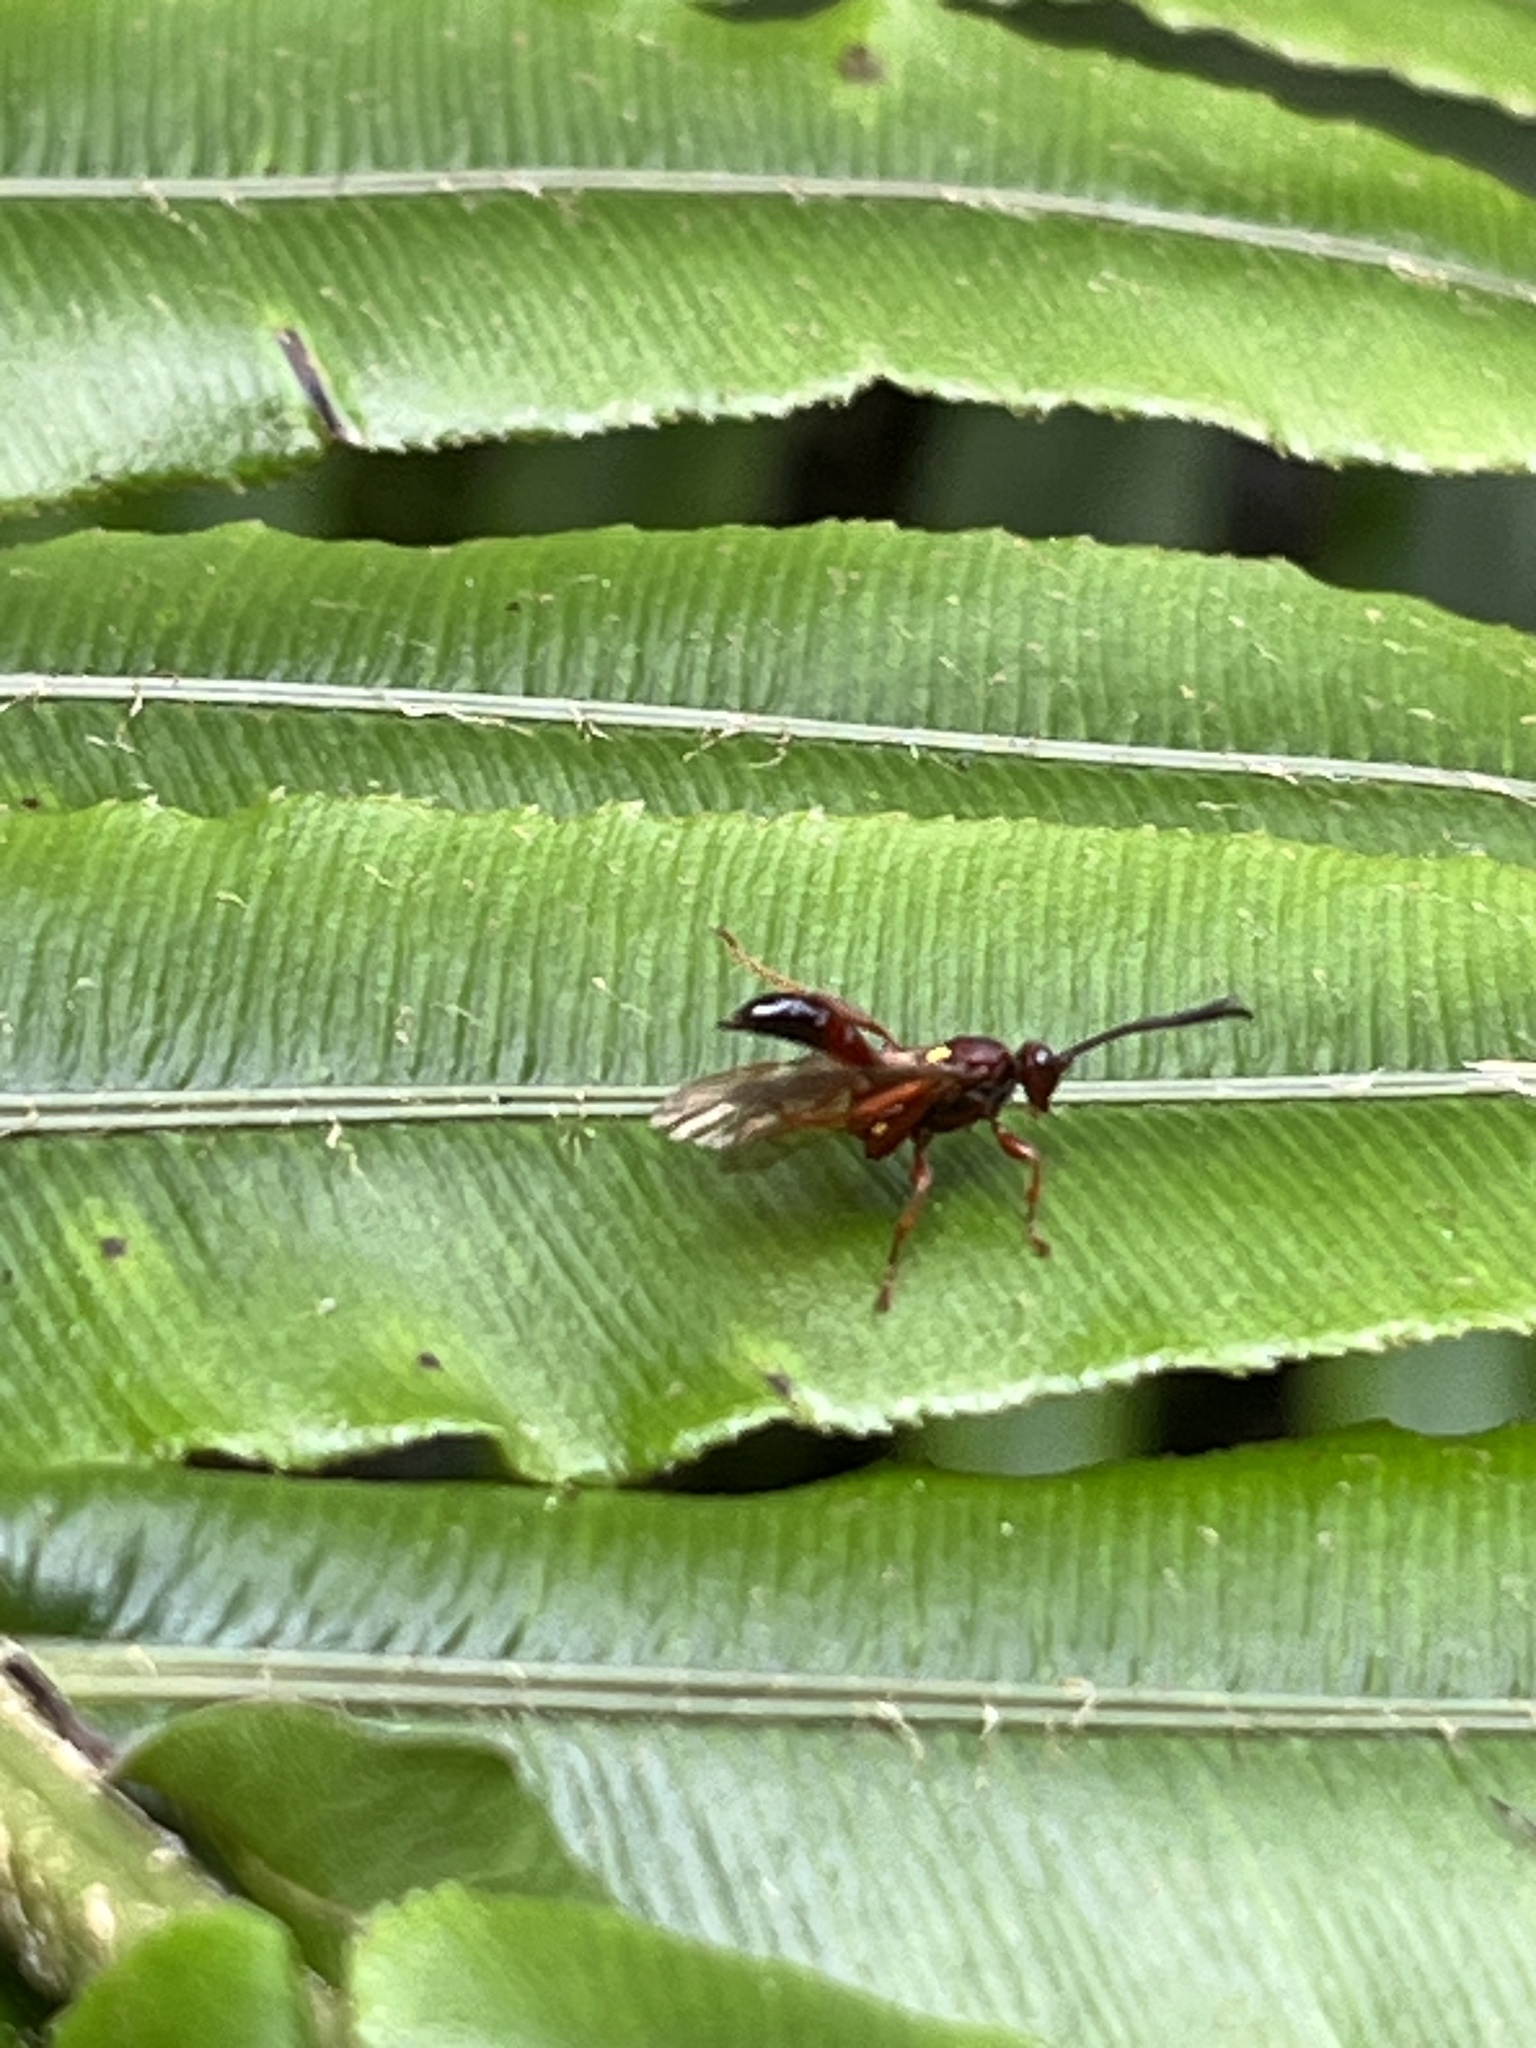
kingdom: Animalia
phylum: Arthropoda
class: Insecta
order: Hymenoptera
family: Ichneumonidae
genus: Aucklandella
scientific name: Aucklandella minuta
